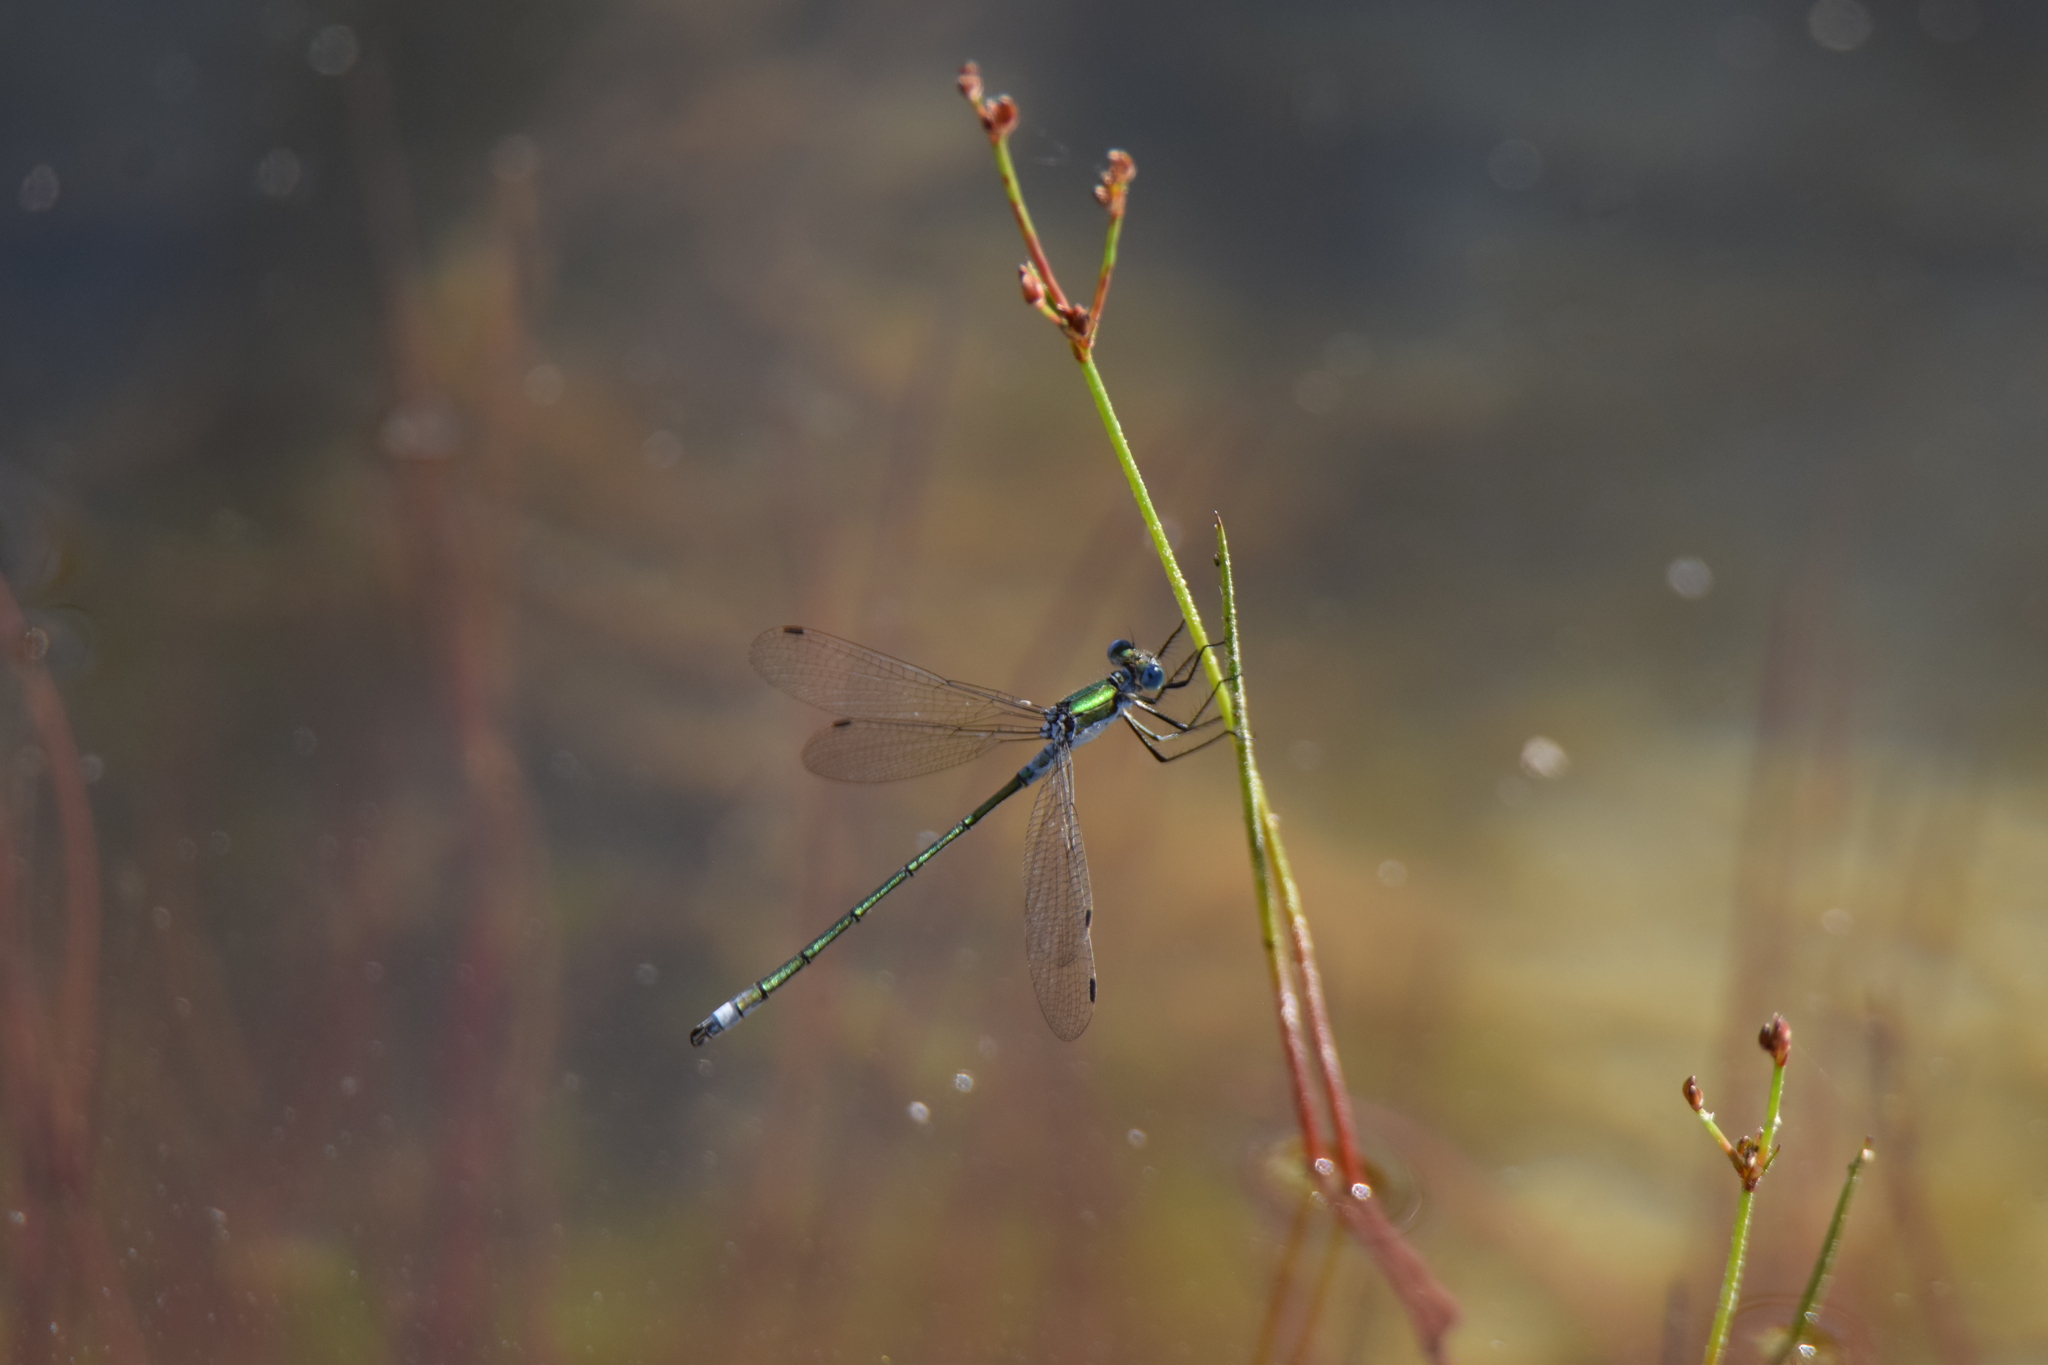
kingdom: Animalia
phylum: Arthropoda
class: Insecta
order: Odonata
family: Lestidae
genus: Lestes
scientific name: Lestes sponsa
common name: Common spreadwing
